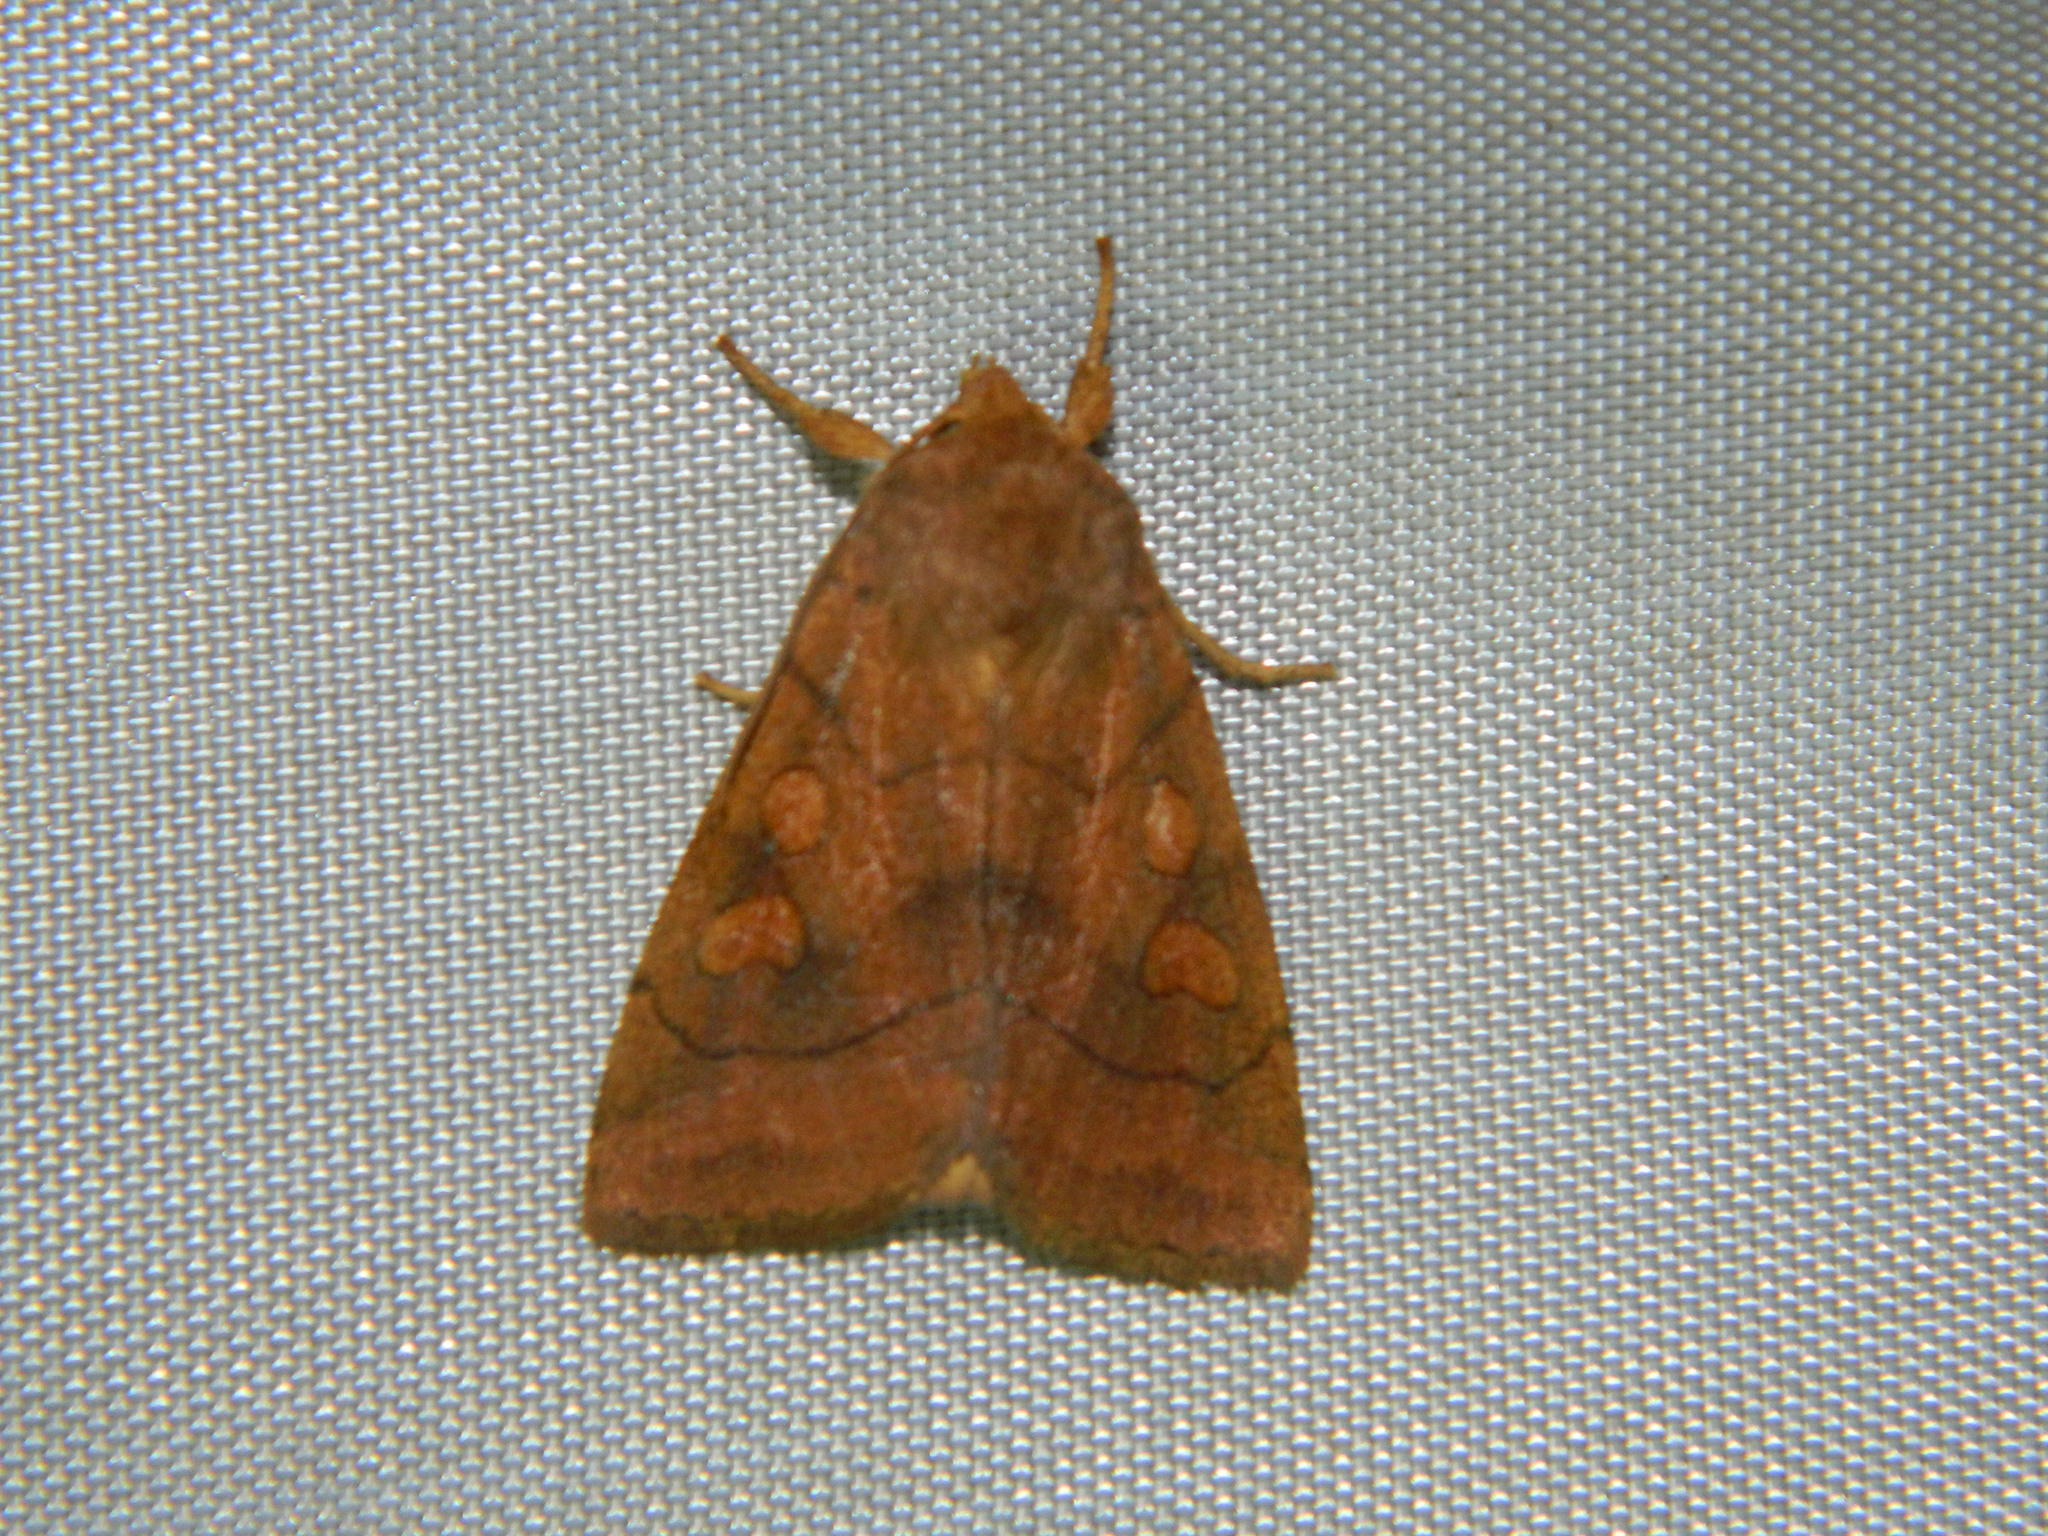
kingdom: Animalia
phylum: Arthropoda
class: Insecta
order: Lepidoptera
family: Noctuidae
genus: Enargia
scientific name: Enargia decolor
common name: Aspen twoleaf tier moth
